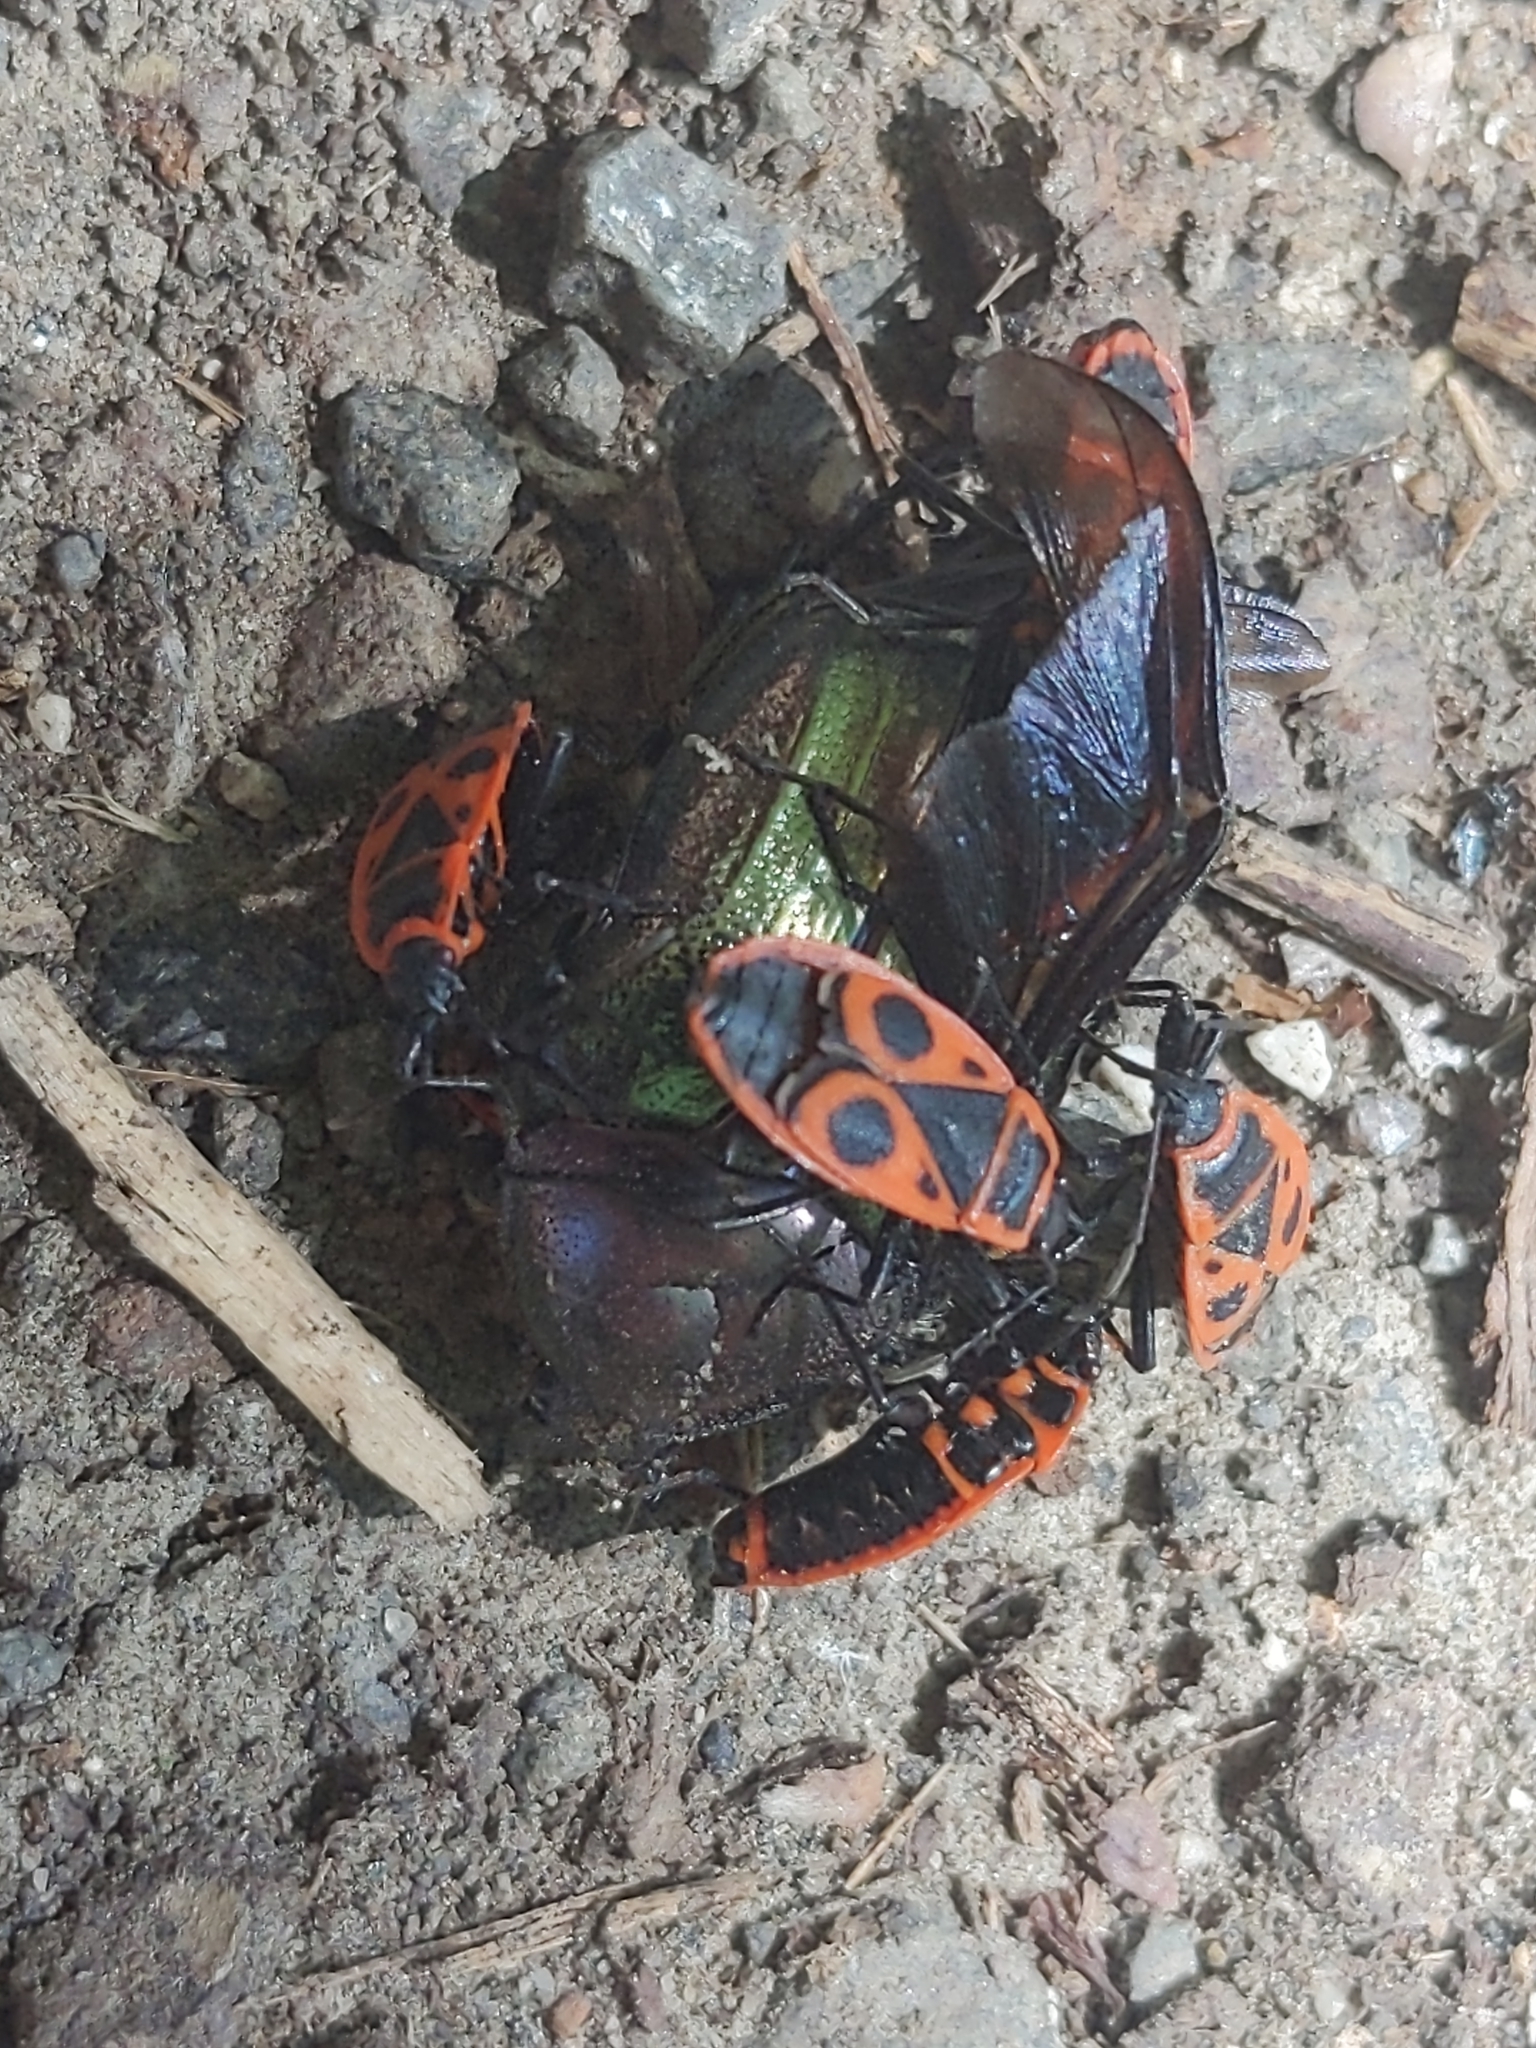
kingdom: Animalia
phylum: Arthropoda
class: Insecta
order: Hemiptera
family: Pyrrhocoridae
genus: Pyrrhocoris
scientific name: Pyrrhocoris apterus
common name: Firebug
